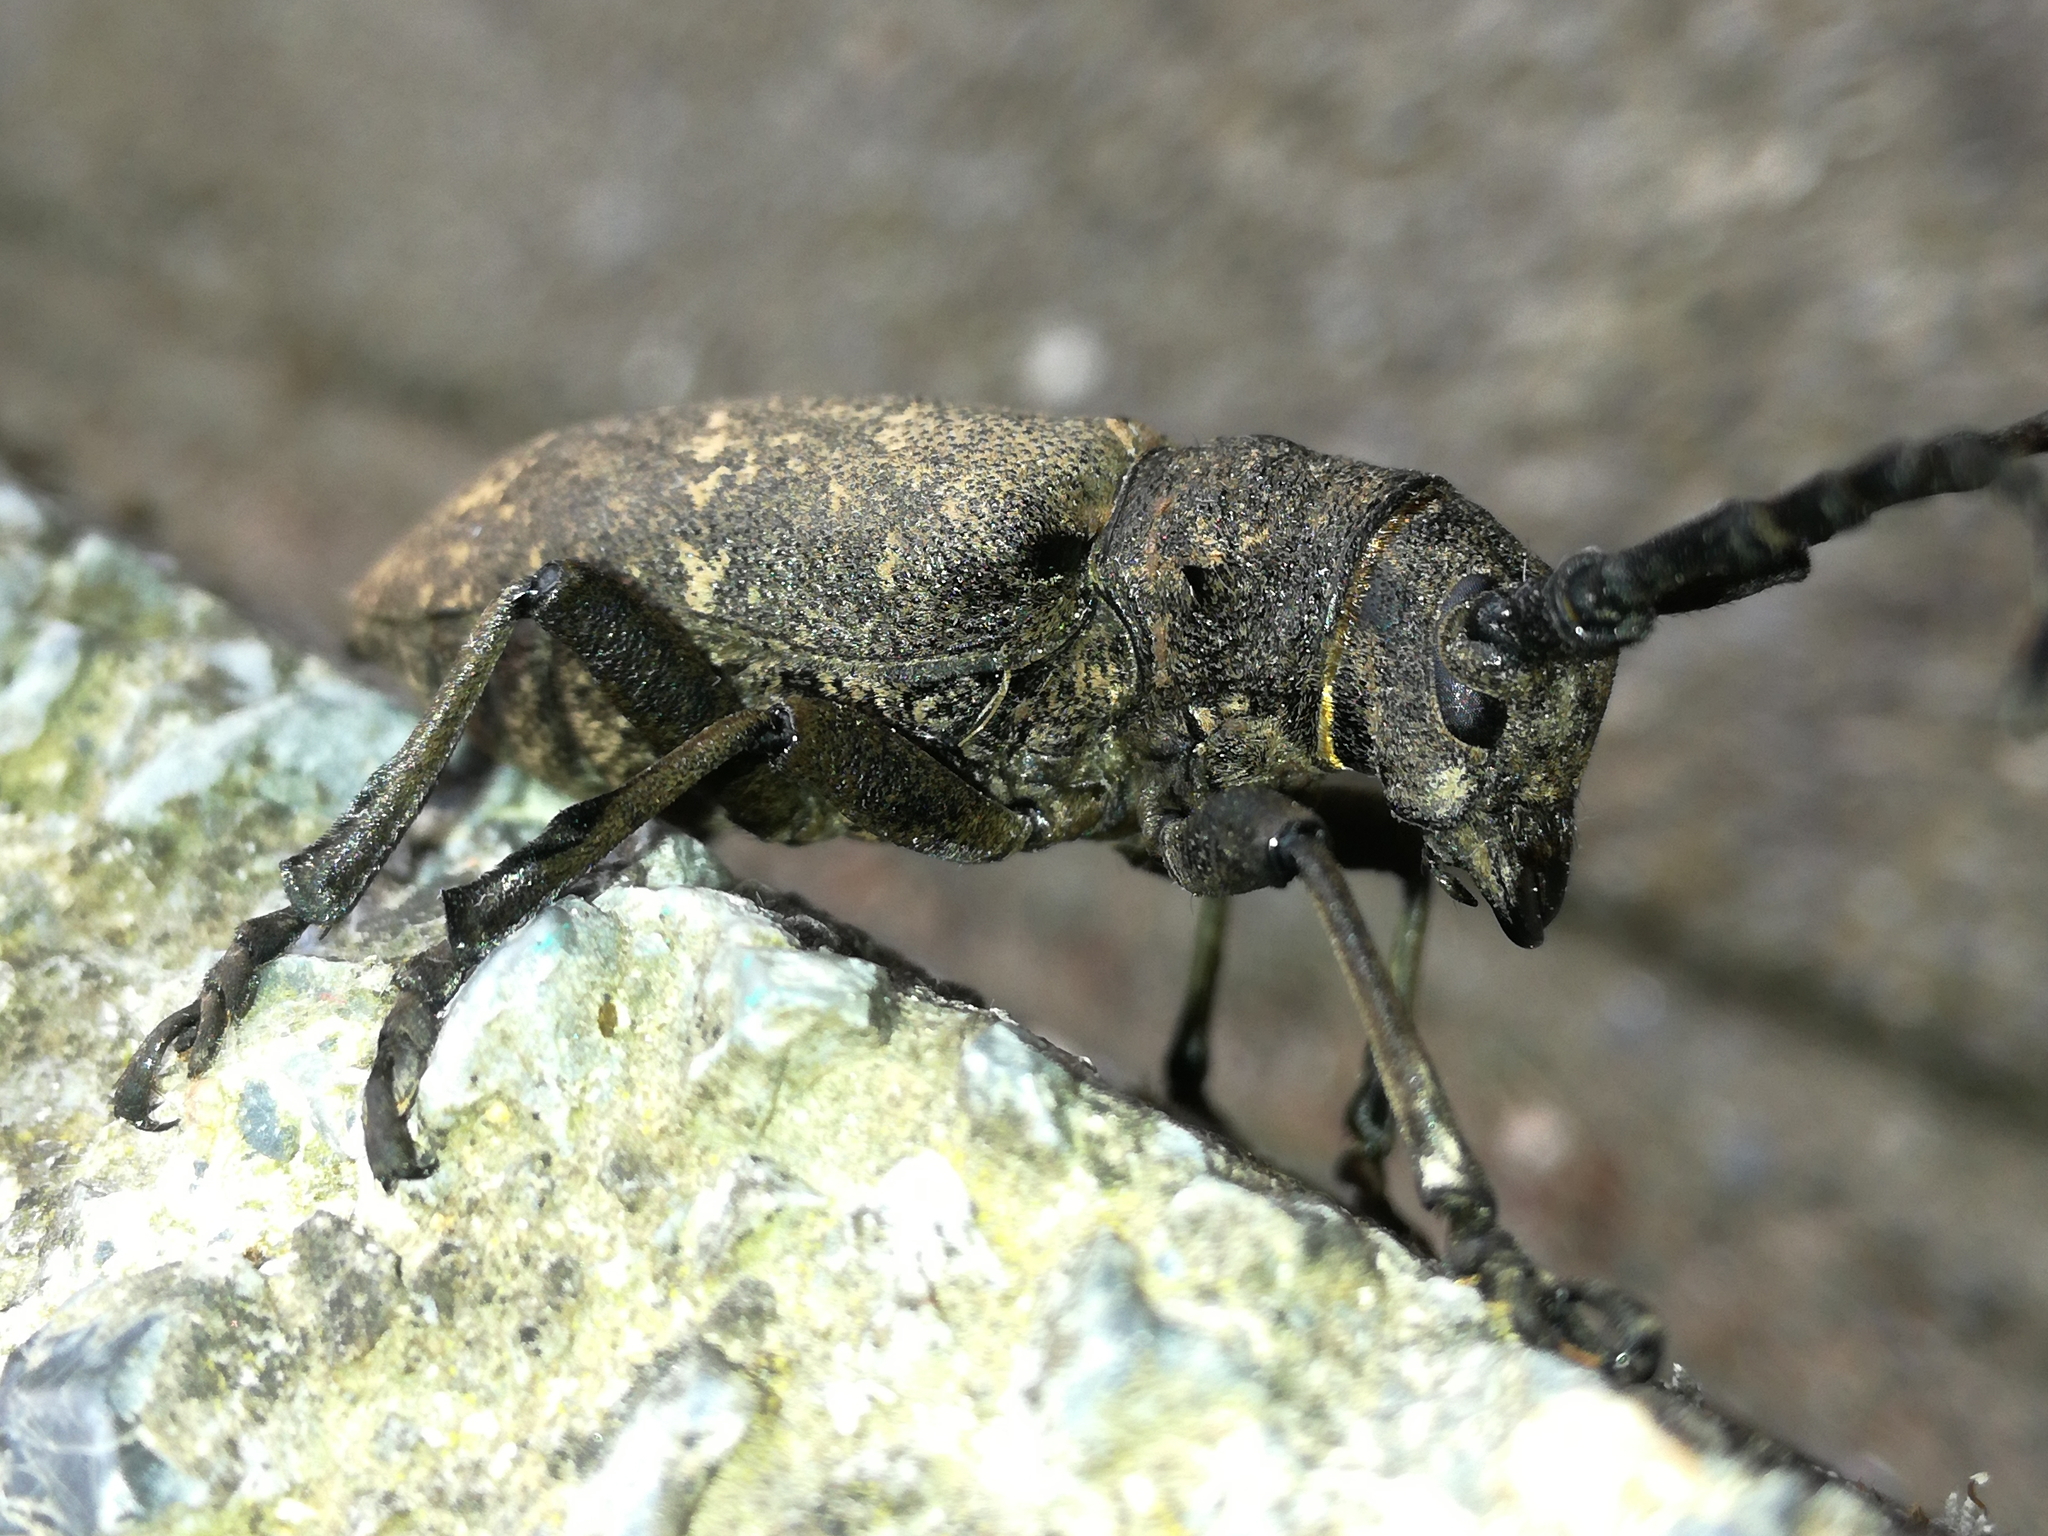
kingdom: Animalia
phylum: Arthropoda
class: Insecta
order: Coleoptera
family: Cerambycidae
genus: Lamia
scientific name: Lamia textor
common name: Weaver beetle
